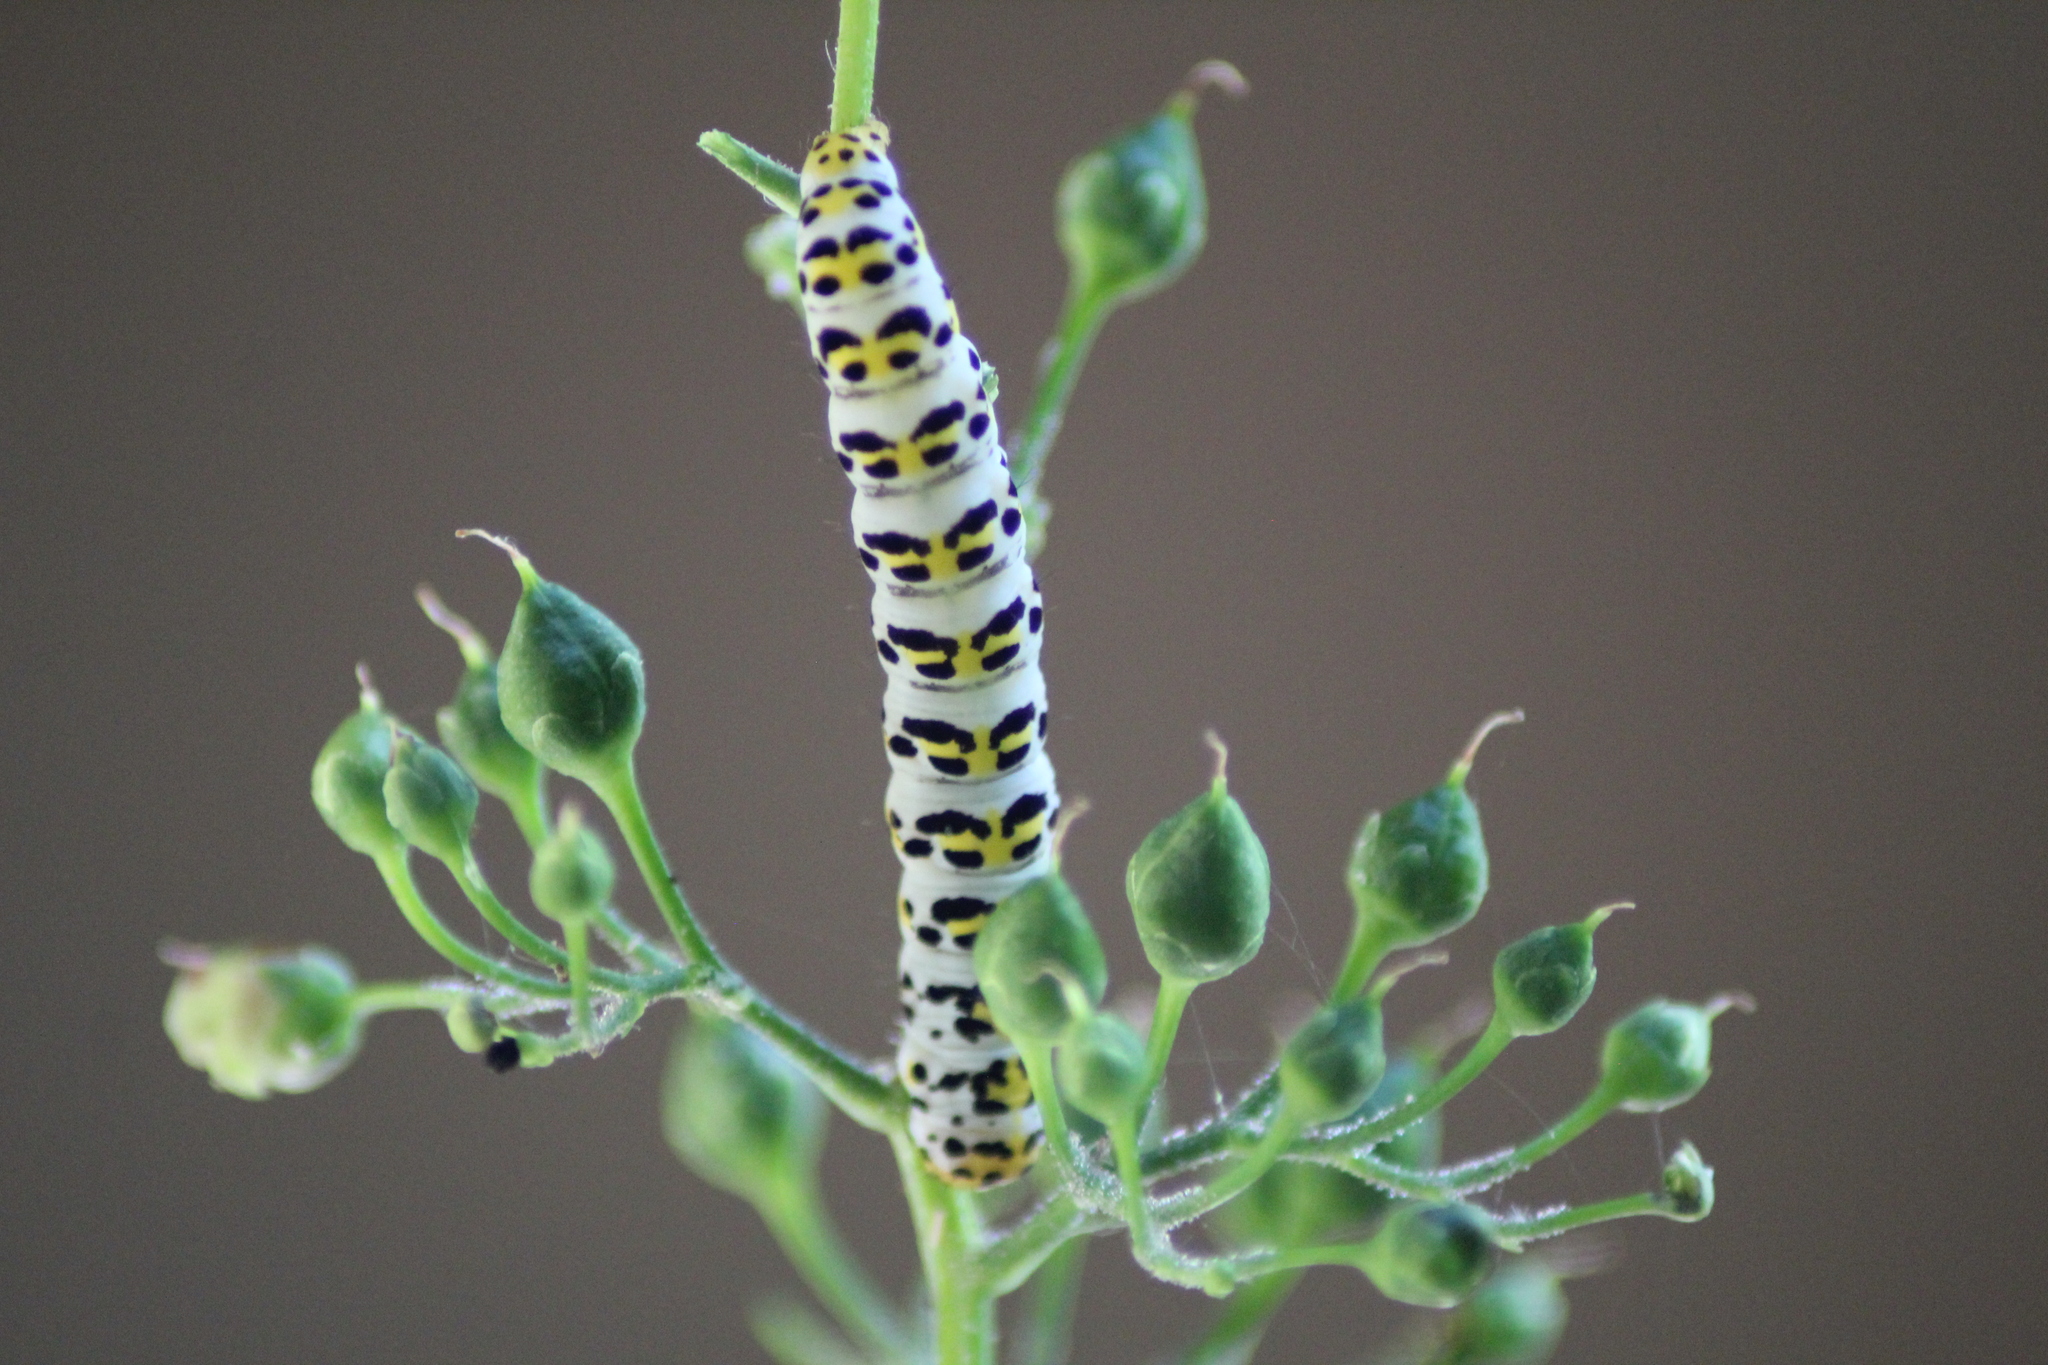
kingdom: Animalia
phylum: Arthropoda
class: Insecta
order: Lepidoptera
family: Noctuidae
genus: Shargacucullia
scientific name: Shargacucullia scrophulariae
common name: Water betony
